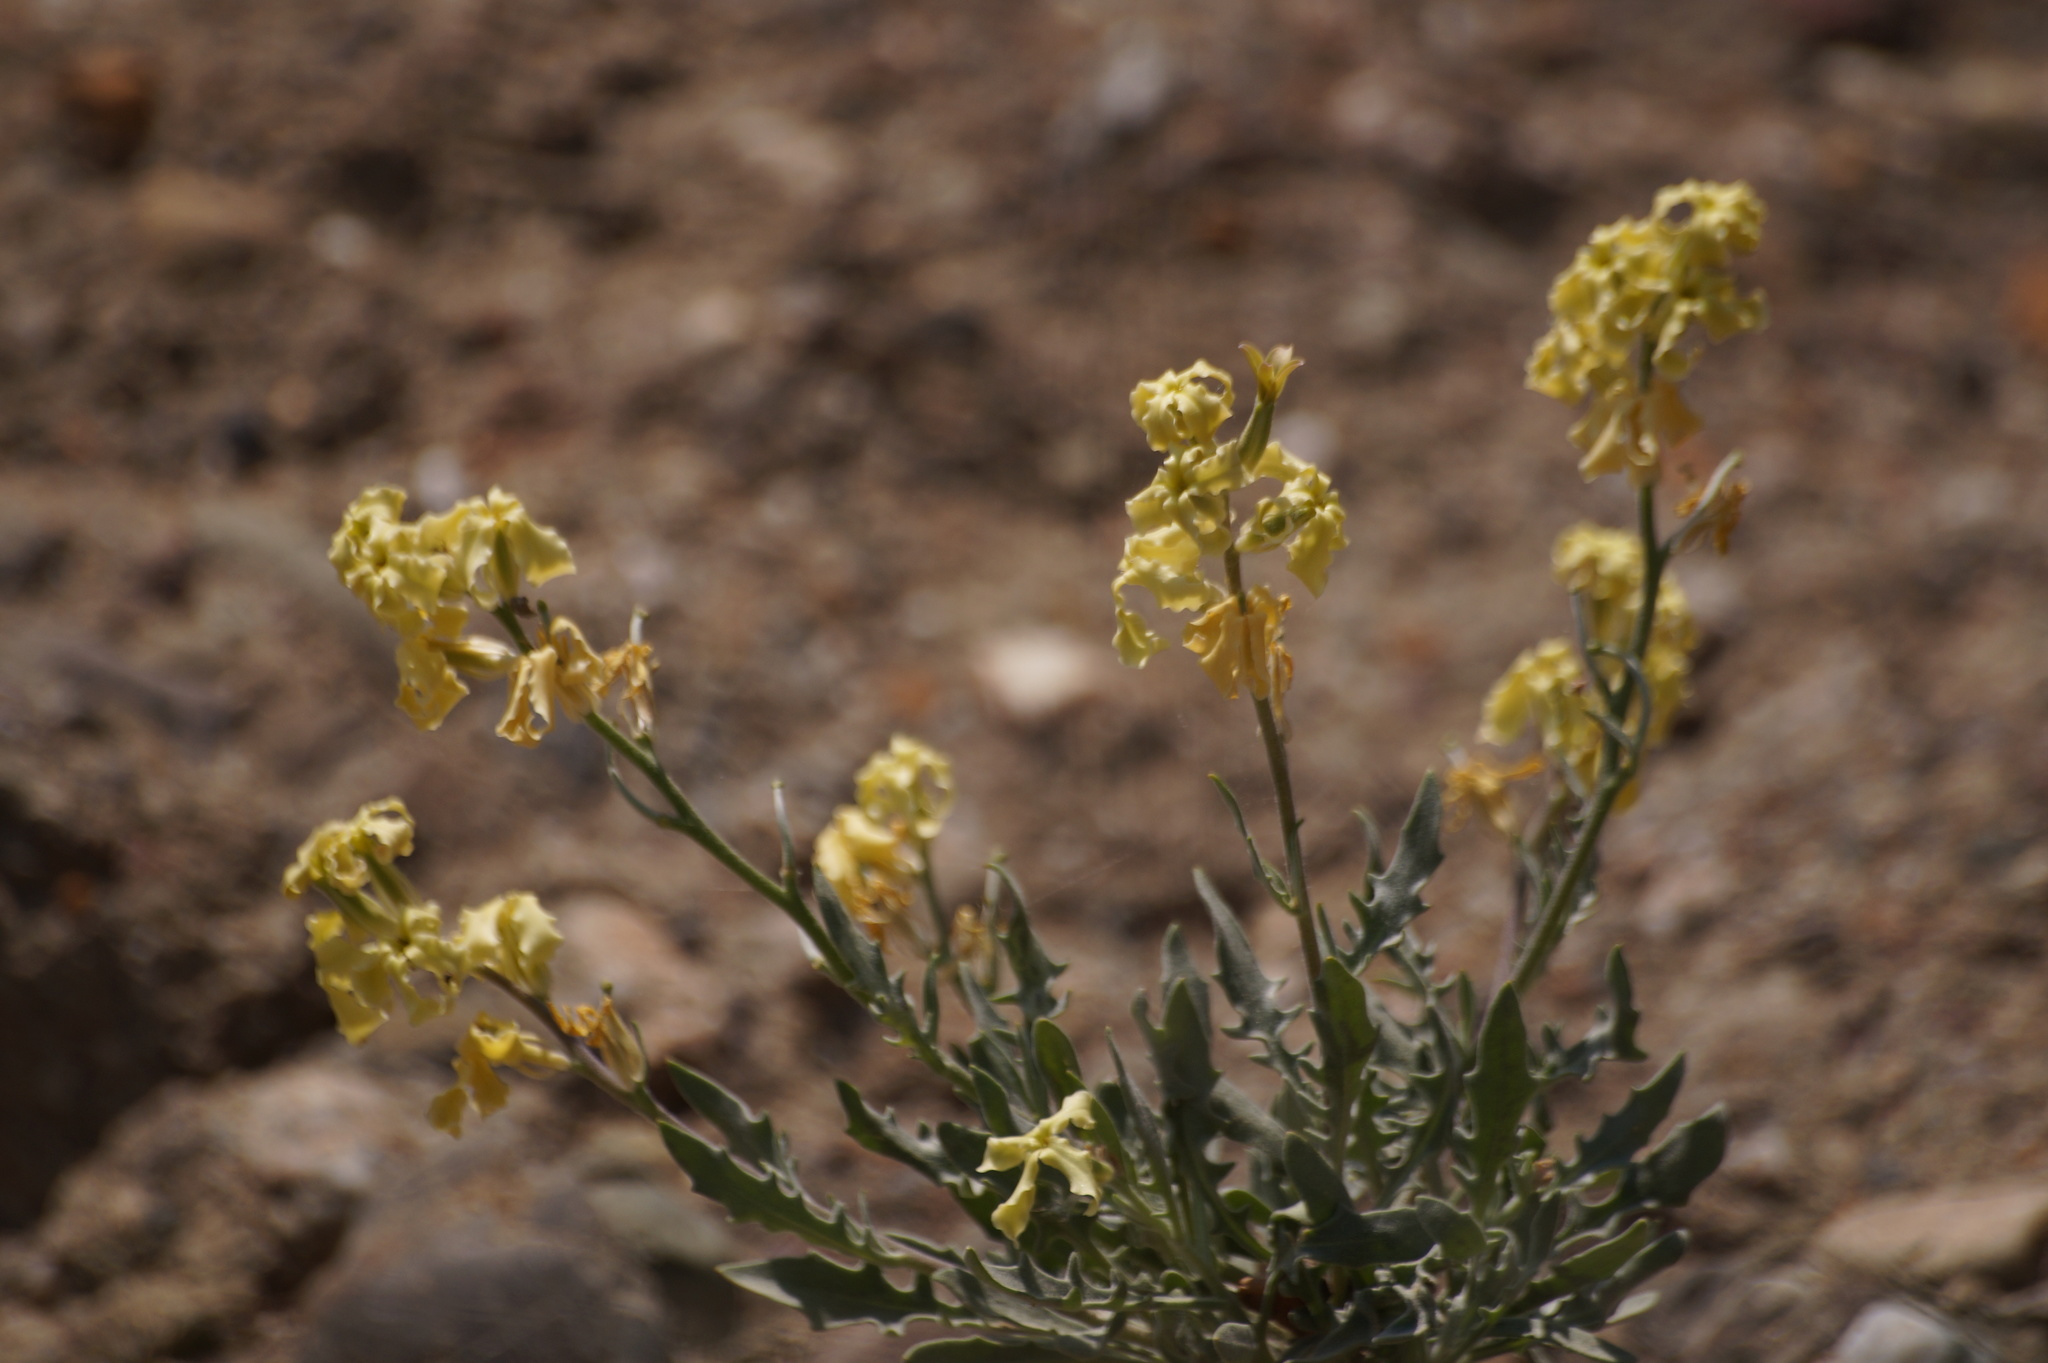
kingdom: Plantae
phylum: Tracheophyta
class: Magnoliopsida
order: Brassicales
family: Brassicaceae
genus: Matthiola
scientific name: Matthiola odoratissima
